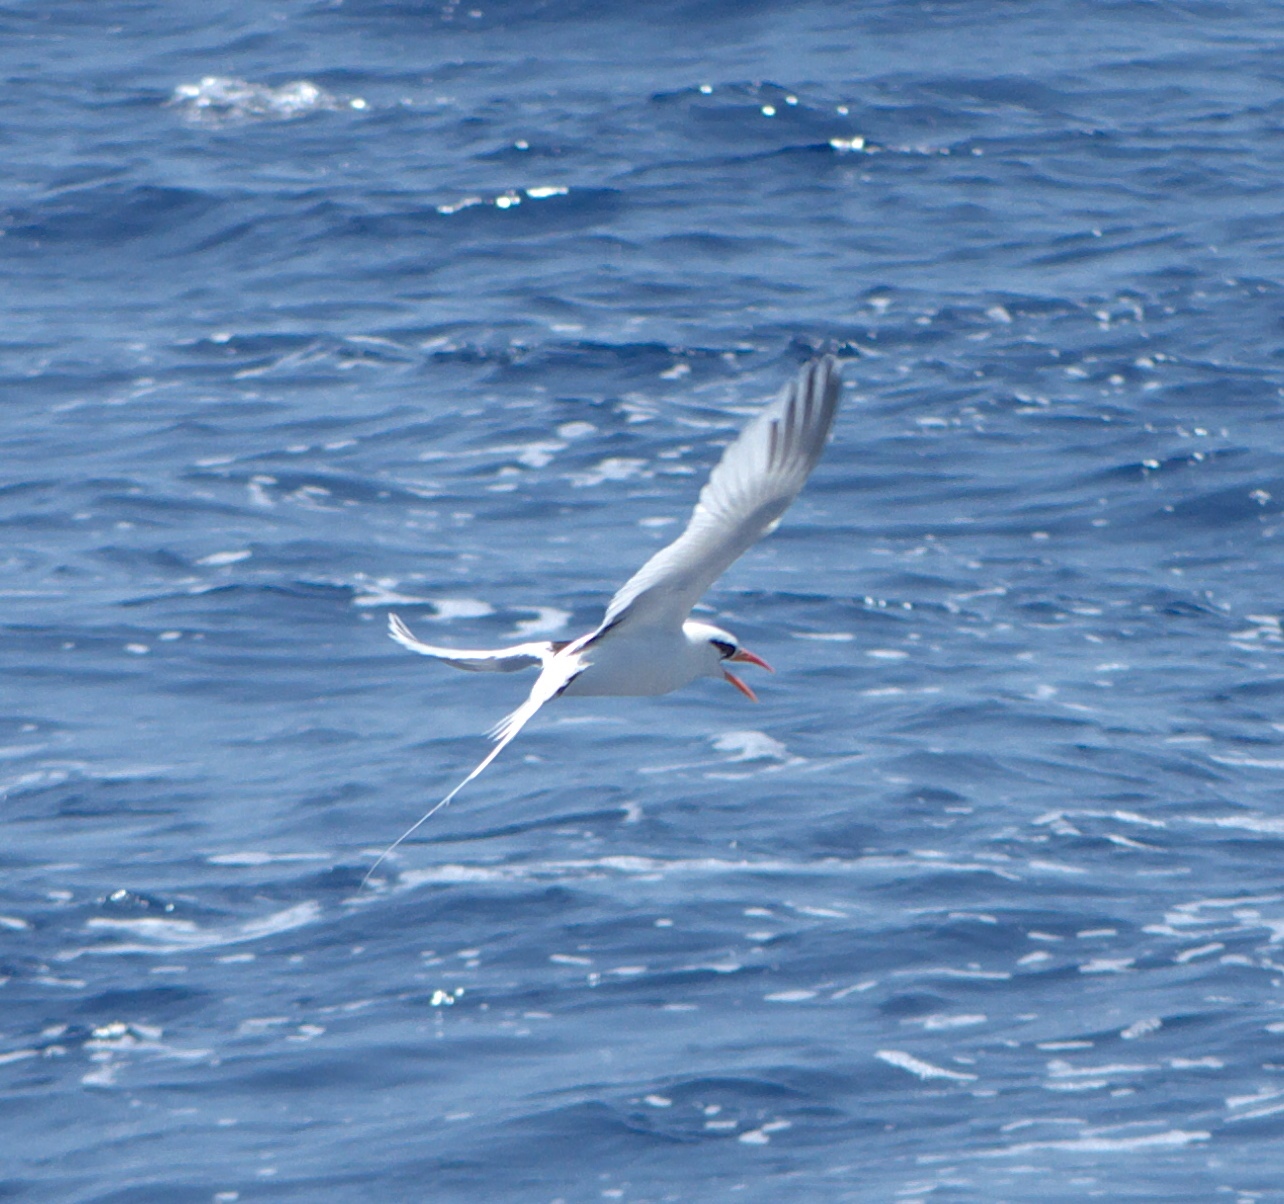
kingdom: Animalia
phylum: Chordata
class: Aves
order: Phaethontiformes
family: Phaethontidae
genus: Phaethon
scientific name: Phaethon lepturus
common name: White-tailed tropicbird
